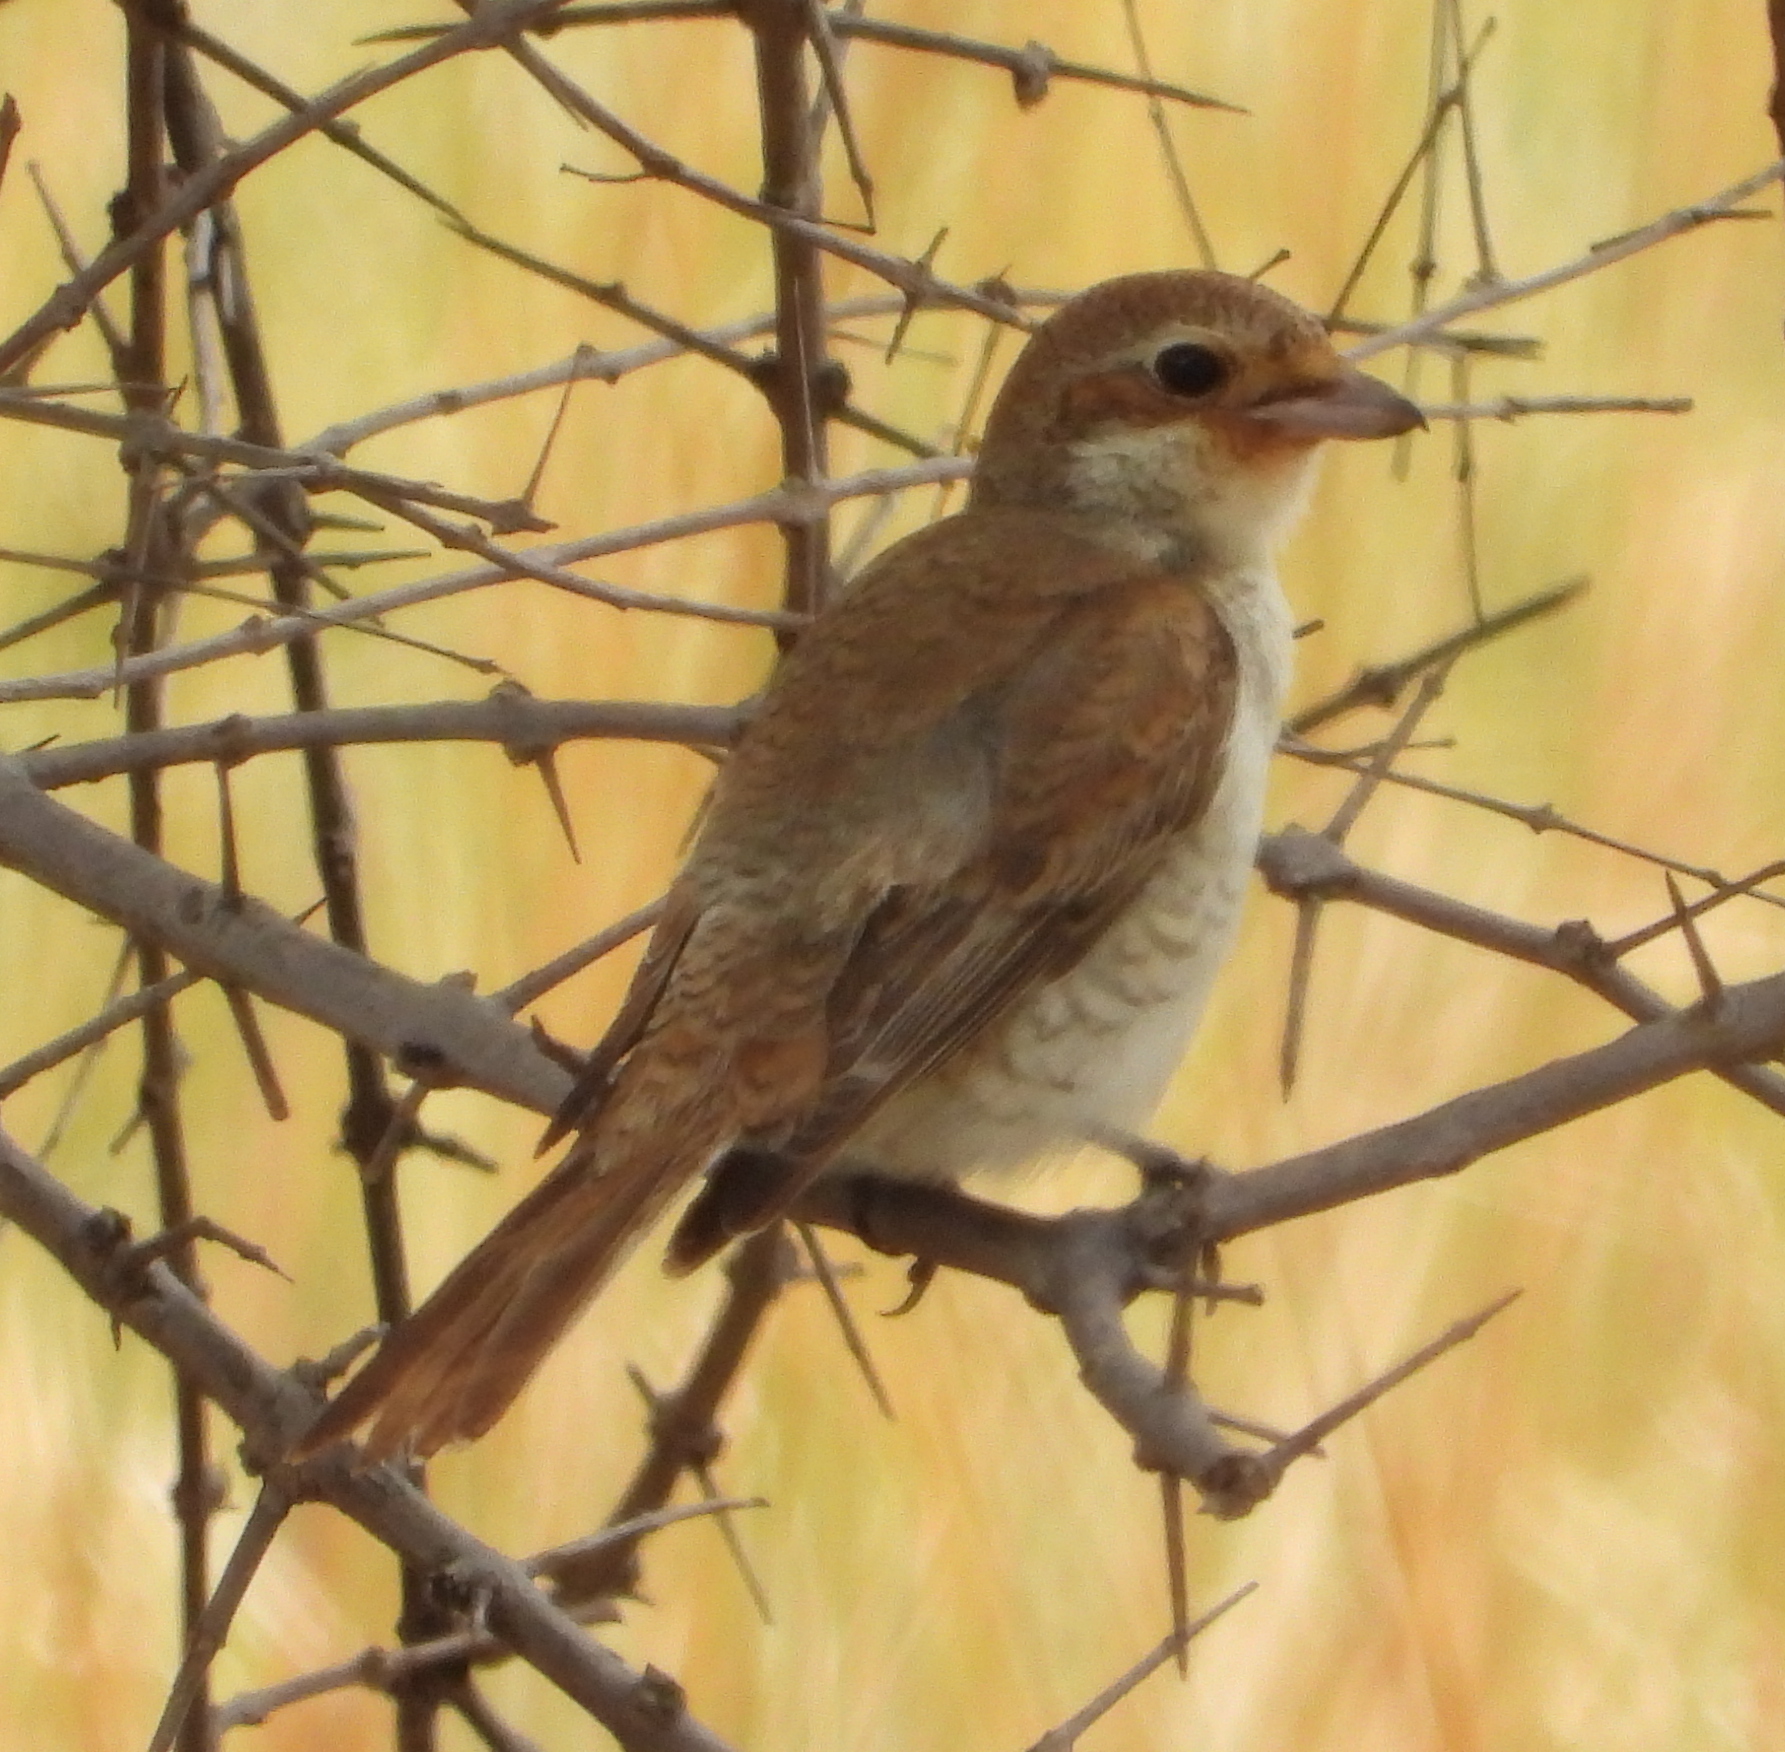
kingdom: Animalia
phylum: Chordata
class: Aves
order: Passeriformes
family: Laniidae
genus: Lanius
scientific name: Lanius collurio
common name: Red-backed shrike
